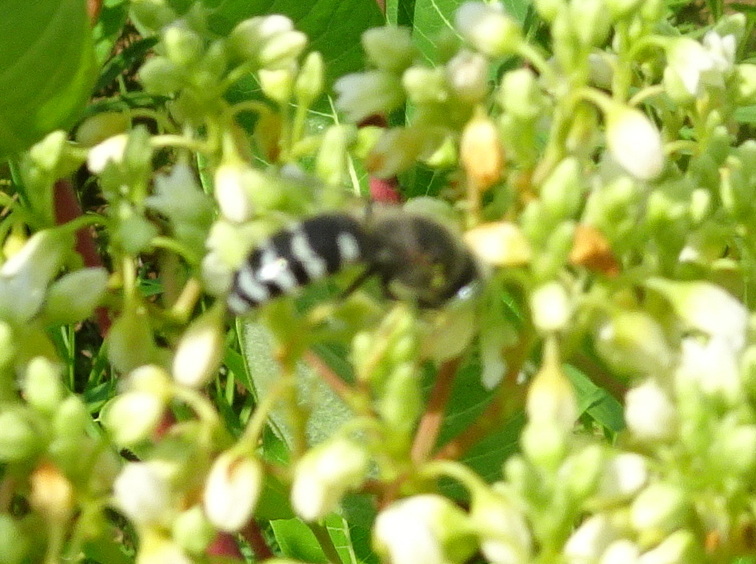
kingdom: Animalia
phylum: Arthropoda
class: Insecta
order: Hymenoptera
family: Crabronidae
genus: Bembix
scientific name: Bembix americana
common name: American sand wasp
